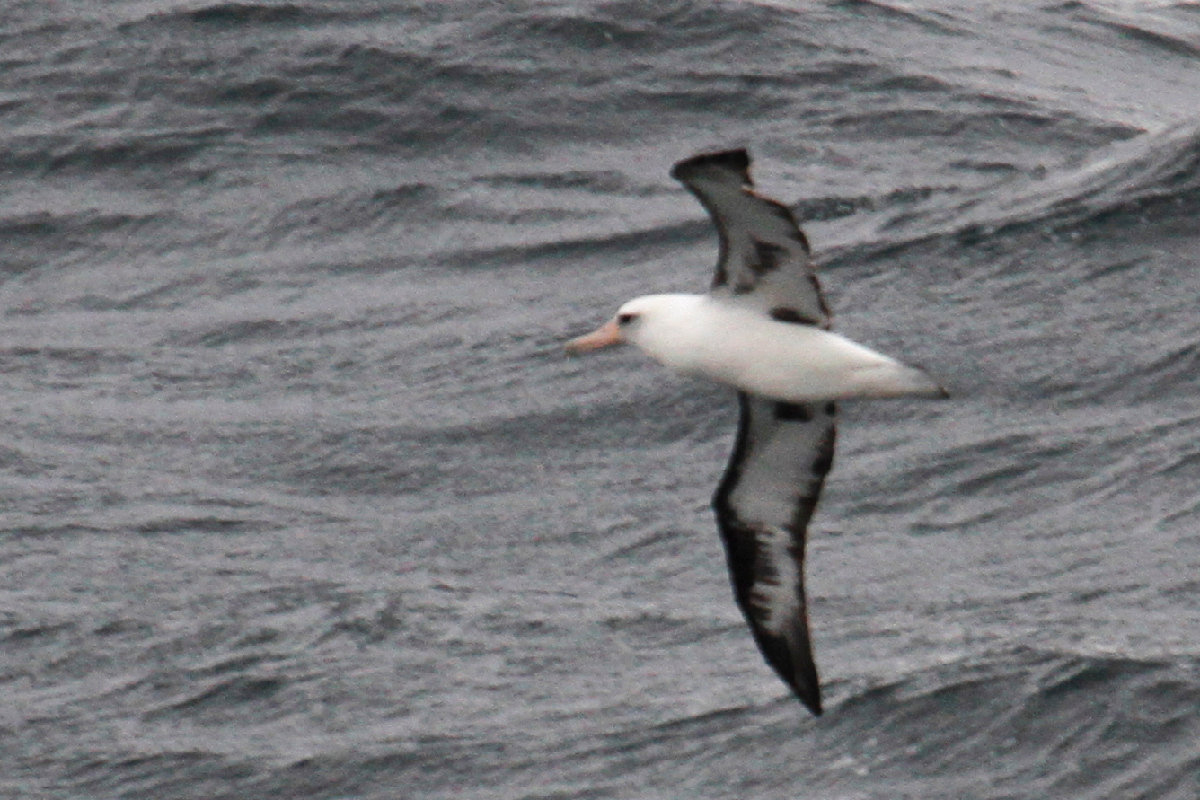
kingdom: Animalia
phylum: Chordata
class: Aves
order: Procellariiformes
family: Diomedeidae
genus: Phoebastria
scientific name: Phoebastria immutabilis
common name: Laysan albatross
